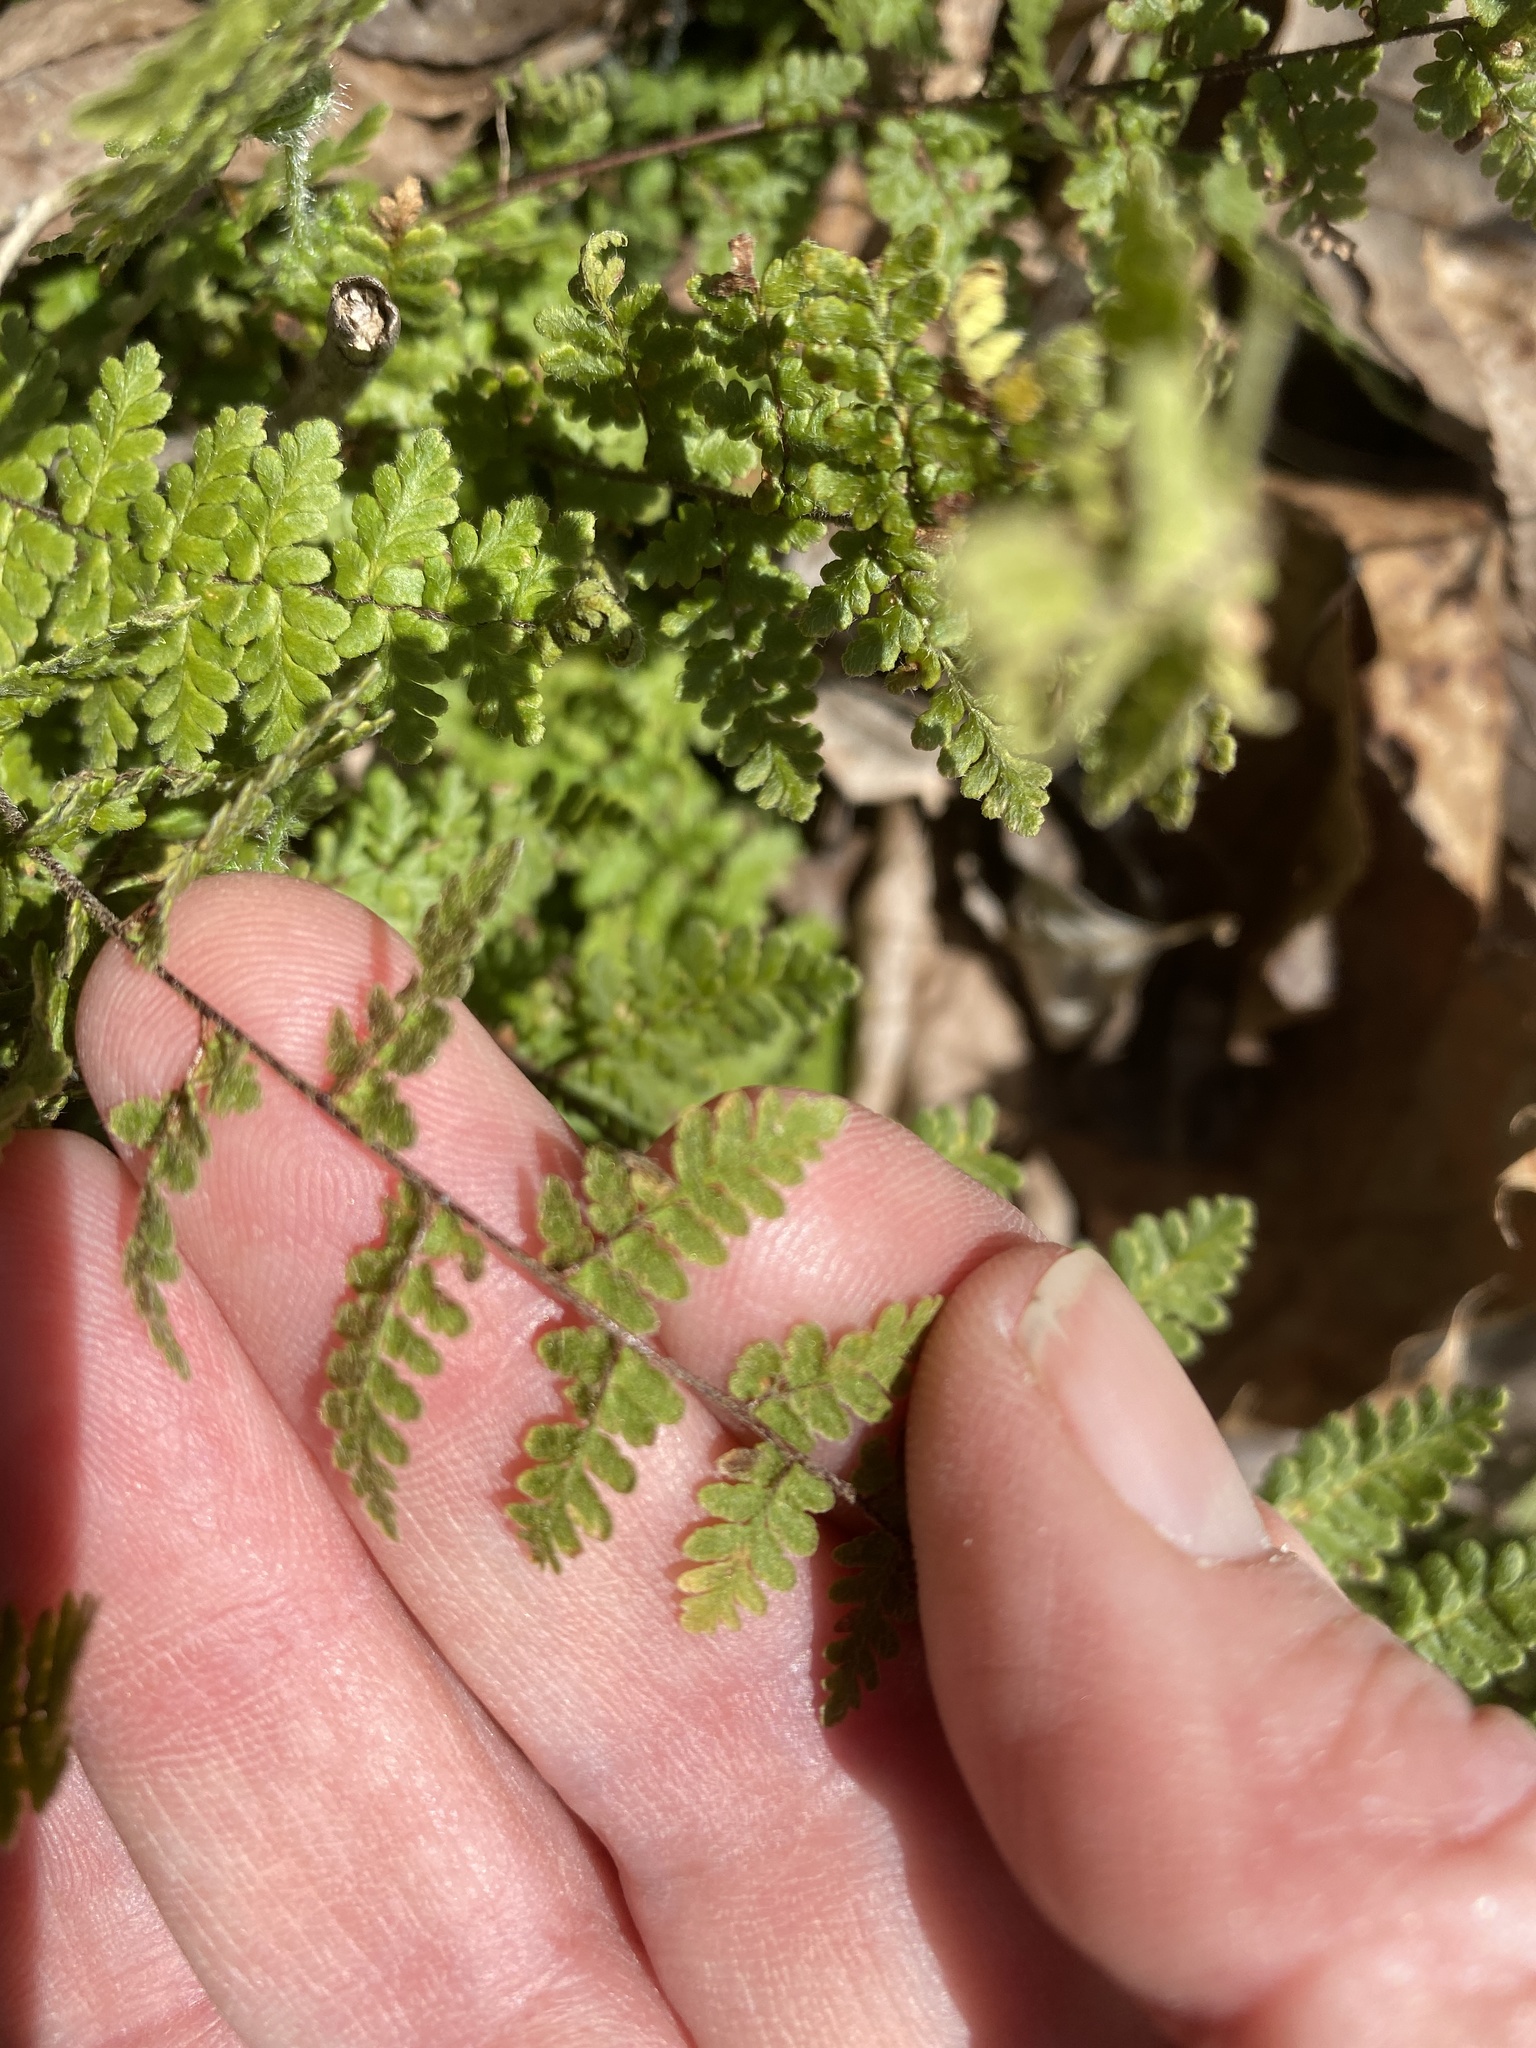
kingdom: Plantae
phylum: Tracheophyta
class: Polypodiopsida
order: Polypodiales
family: Pteridaceae
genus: Myriopteris
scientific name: Myriopteris lanosa
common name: Hairy lip fern
